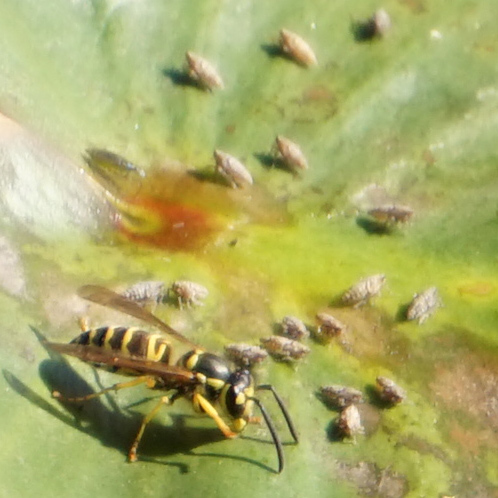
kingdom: Animalia
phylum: Arthropoda
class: Insecta
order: Hymenoptera
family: Vespidae
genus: Vespula
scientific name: Vespula maculifrons
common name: Eastern yellowjacket
